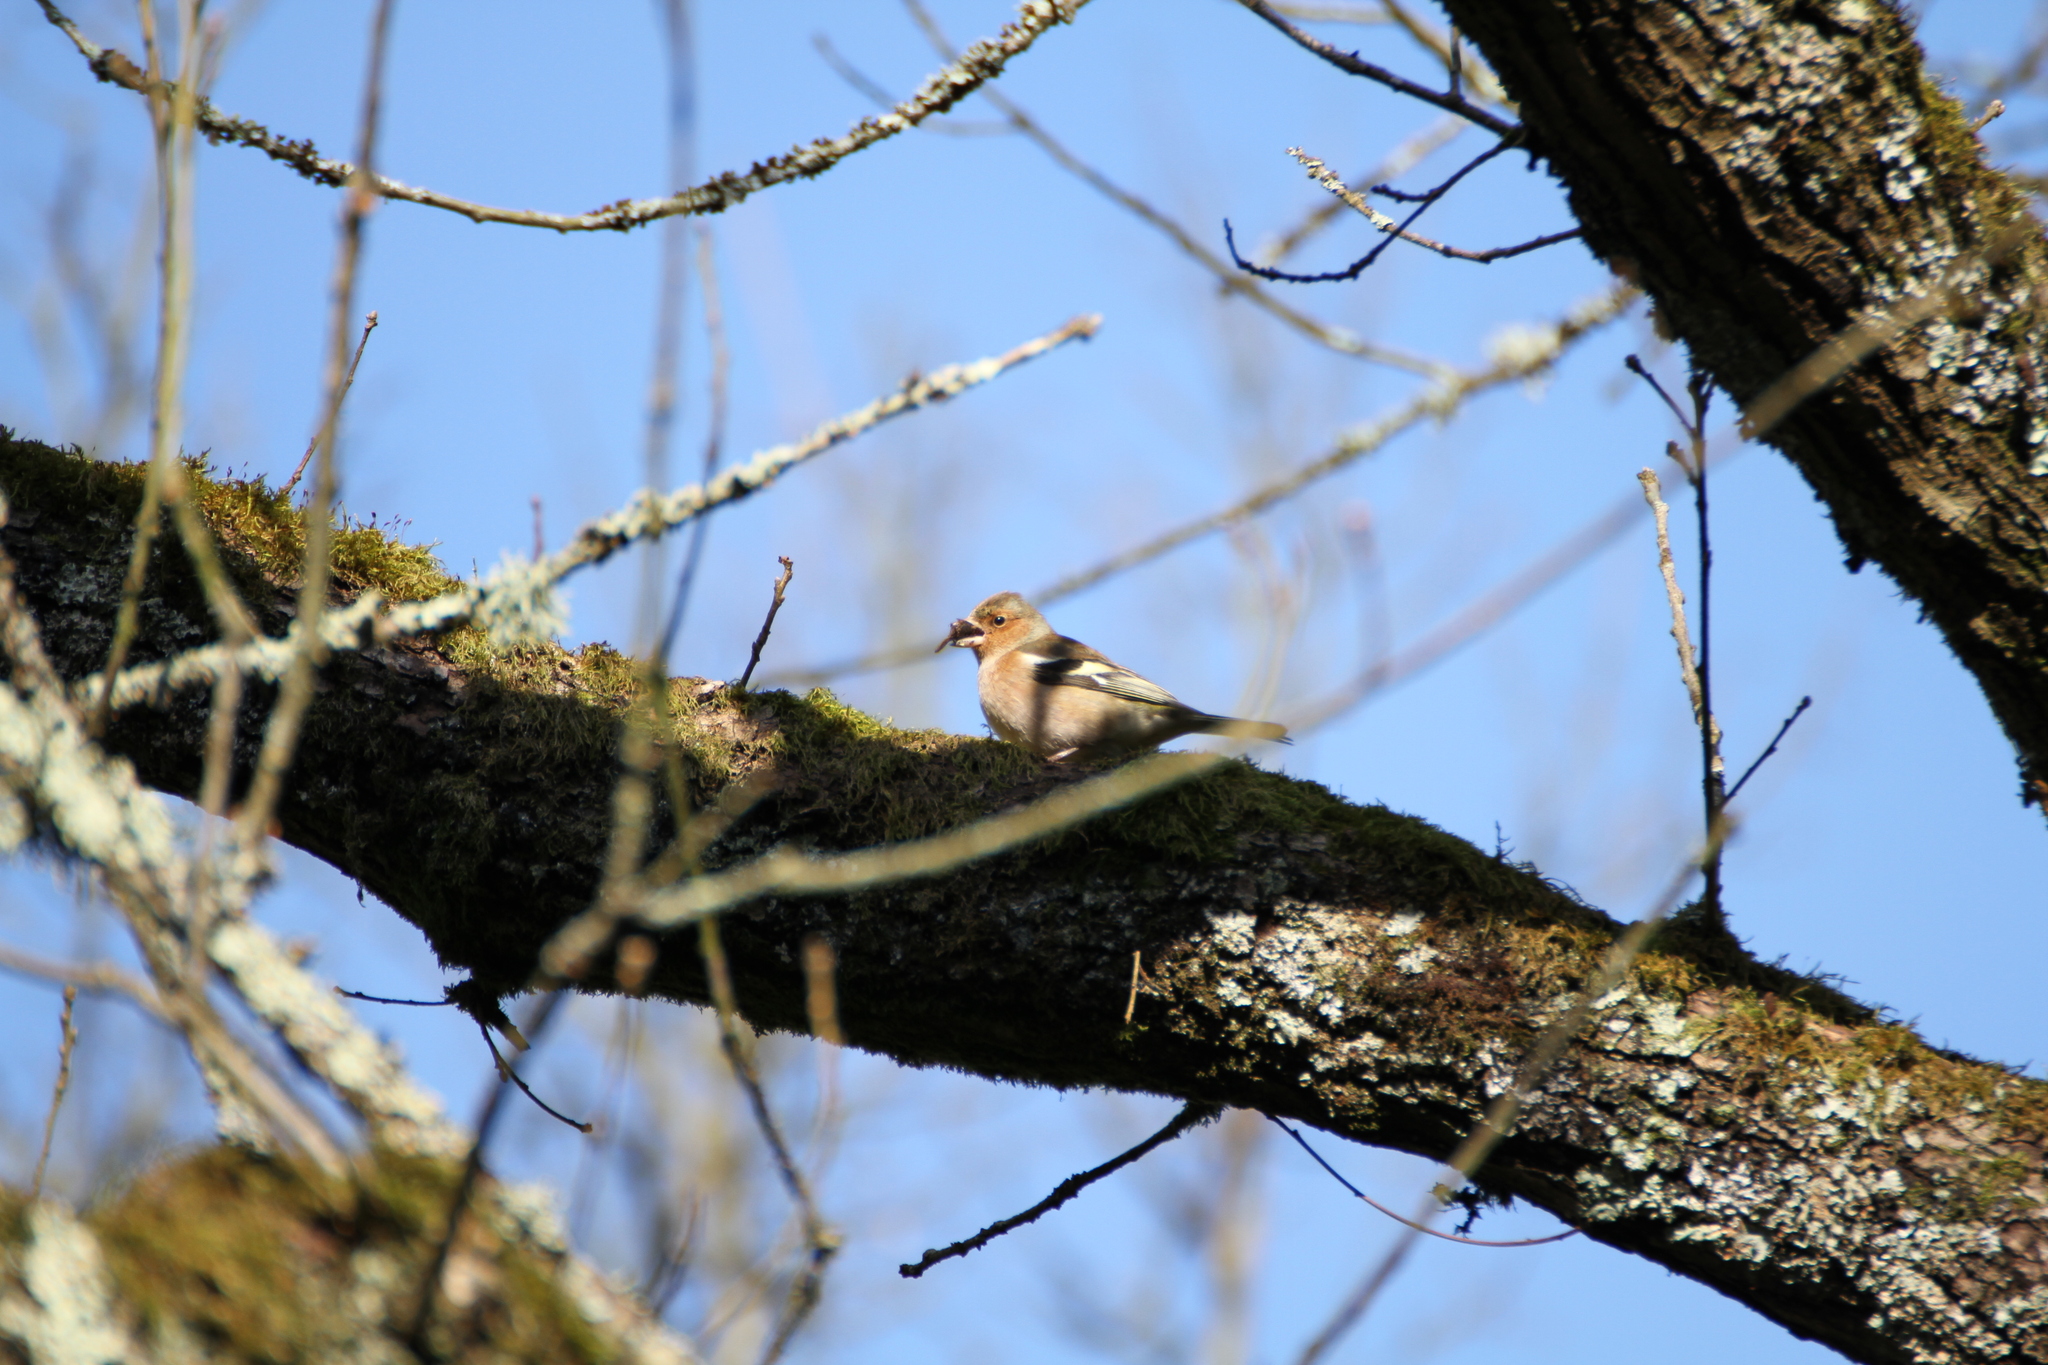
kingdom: Animalia
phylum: Chordata
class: Aves
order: Passeriformes
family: Fringillidae
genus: Fringilla
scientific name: Fringilla coelebs
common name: Common chaffinch
